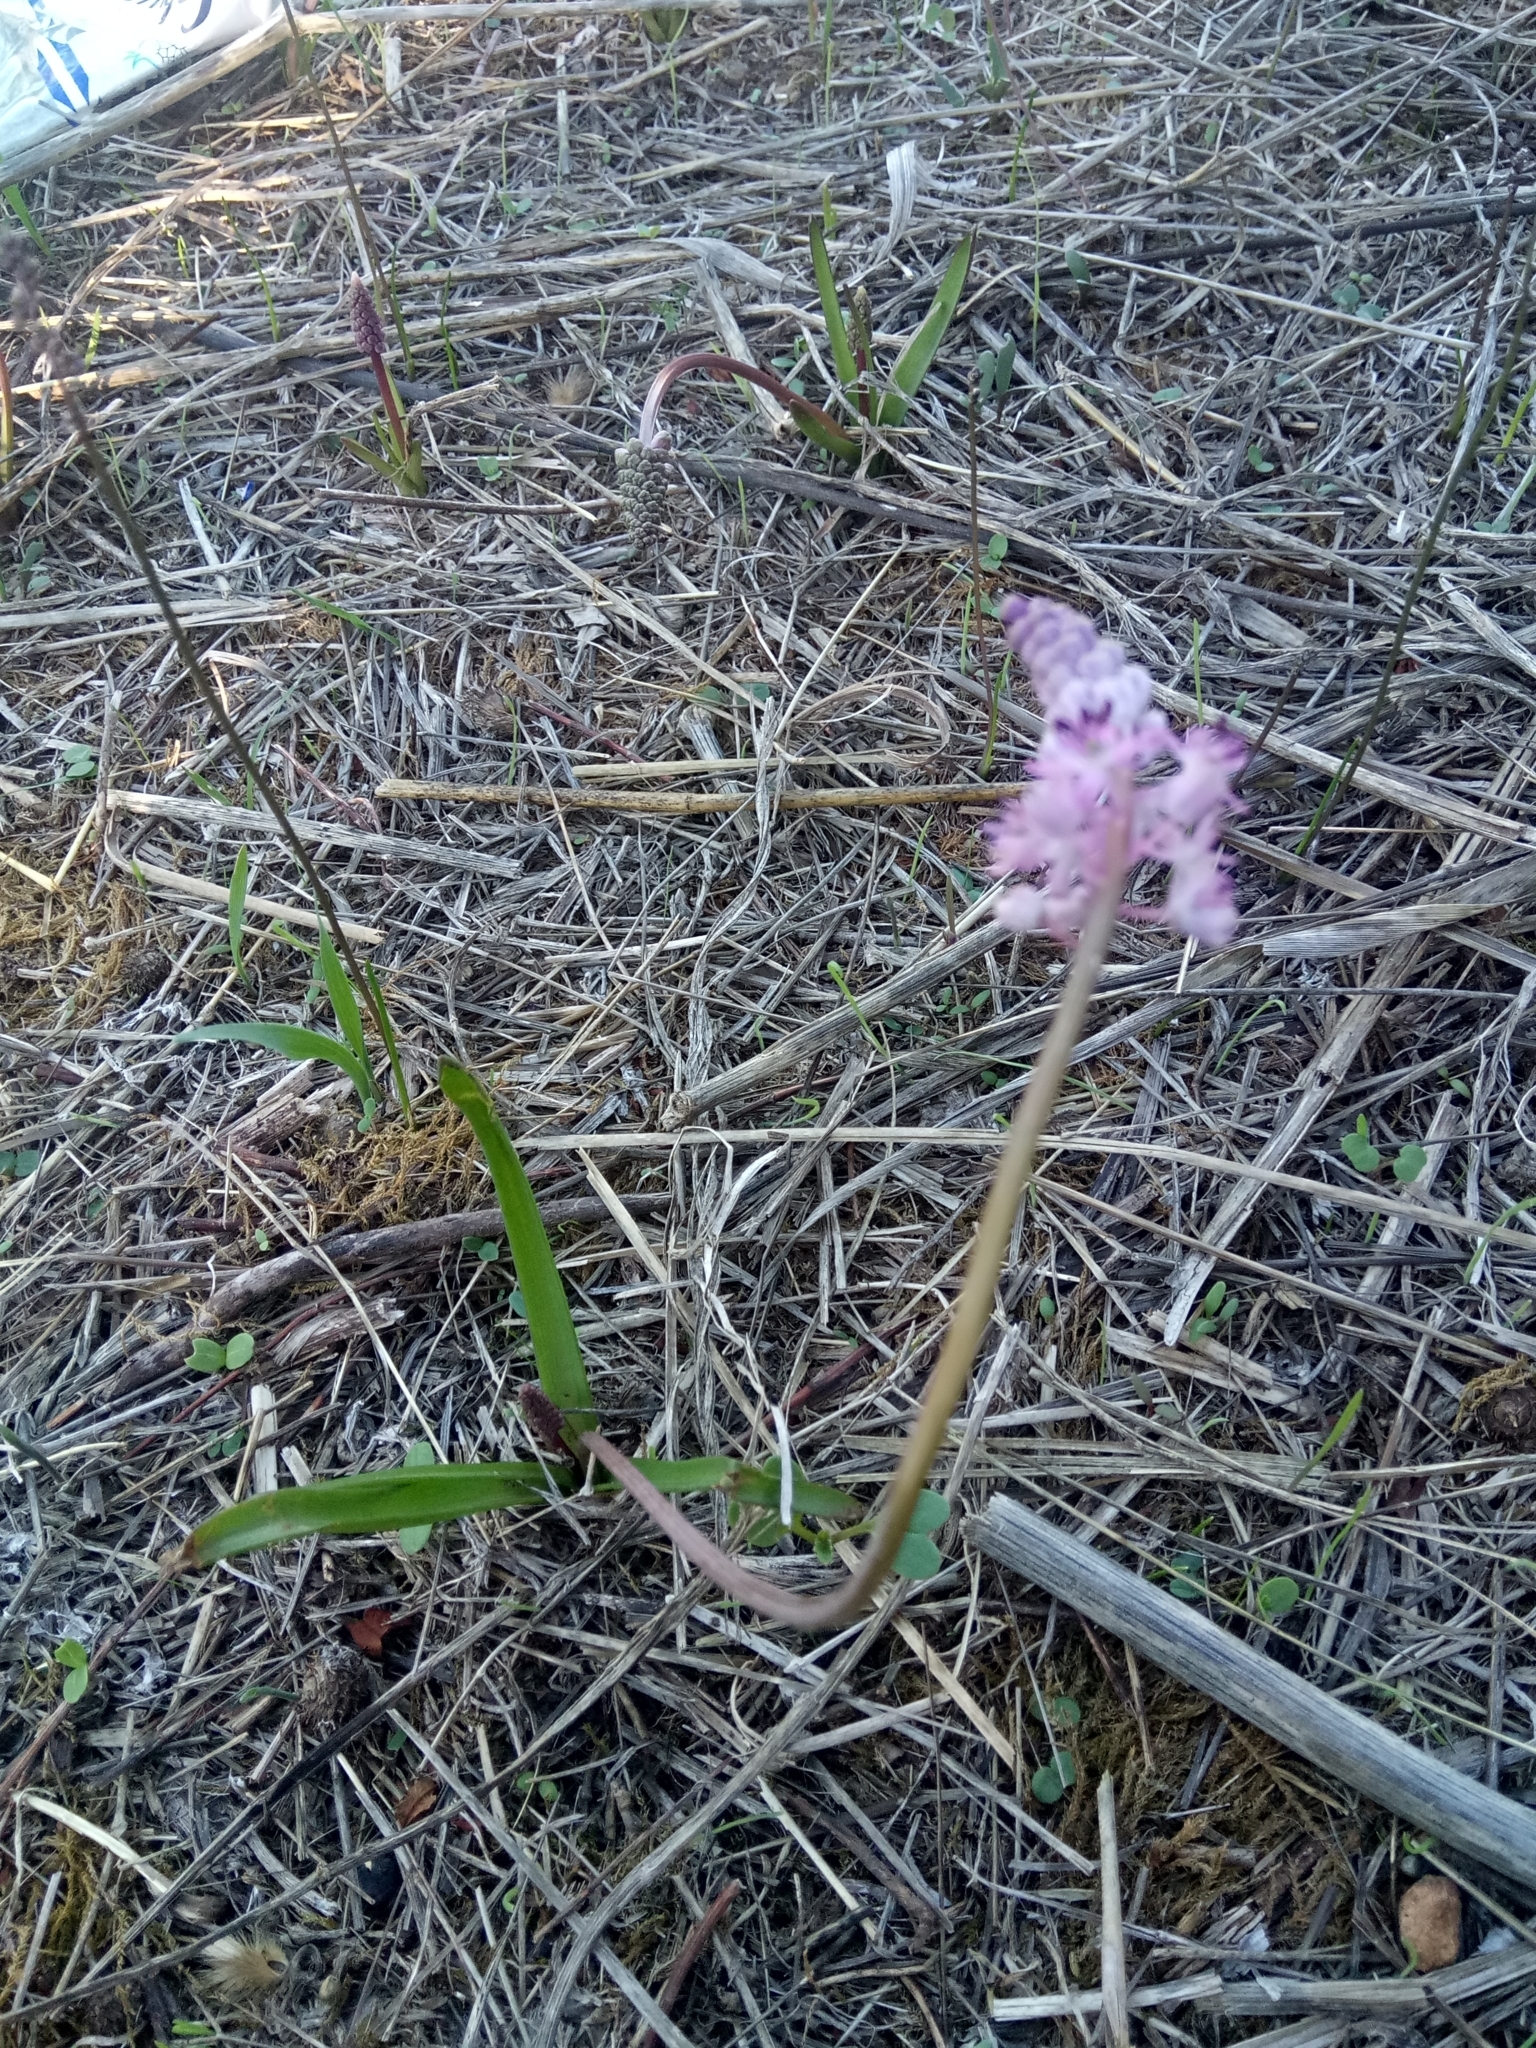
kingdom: Plantae
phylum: Tracheophyta
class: Liliopsida
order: Asparagales
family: Asparagaceae
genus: Barnardia
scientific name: Barnardia numidica
